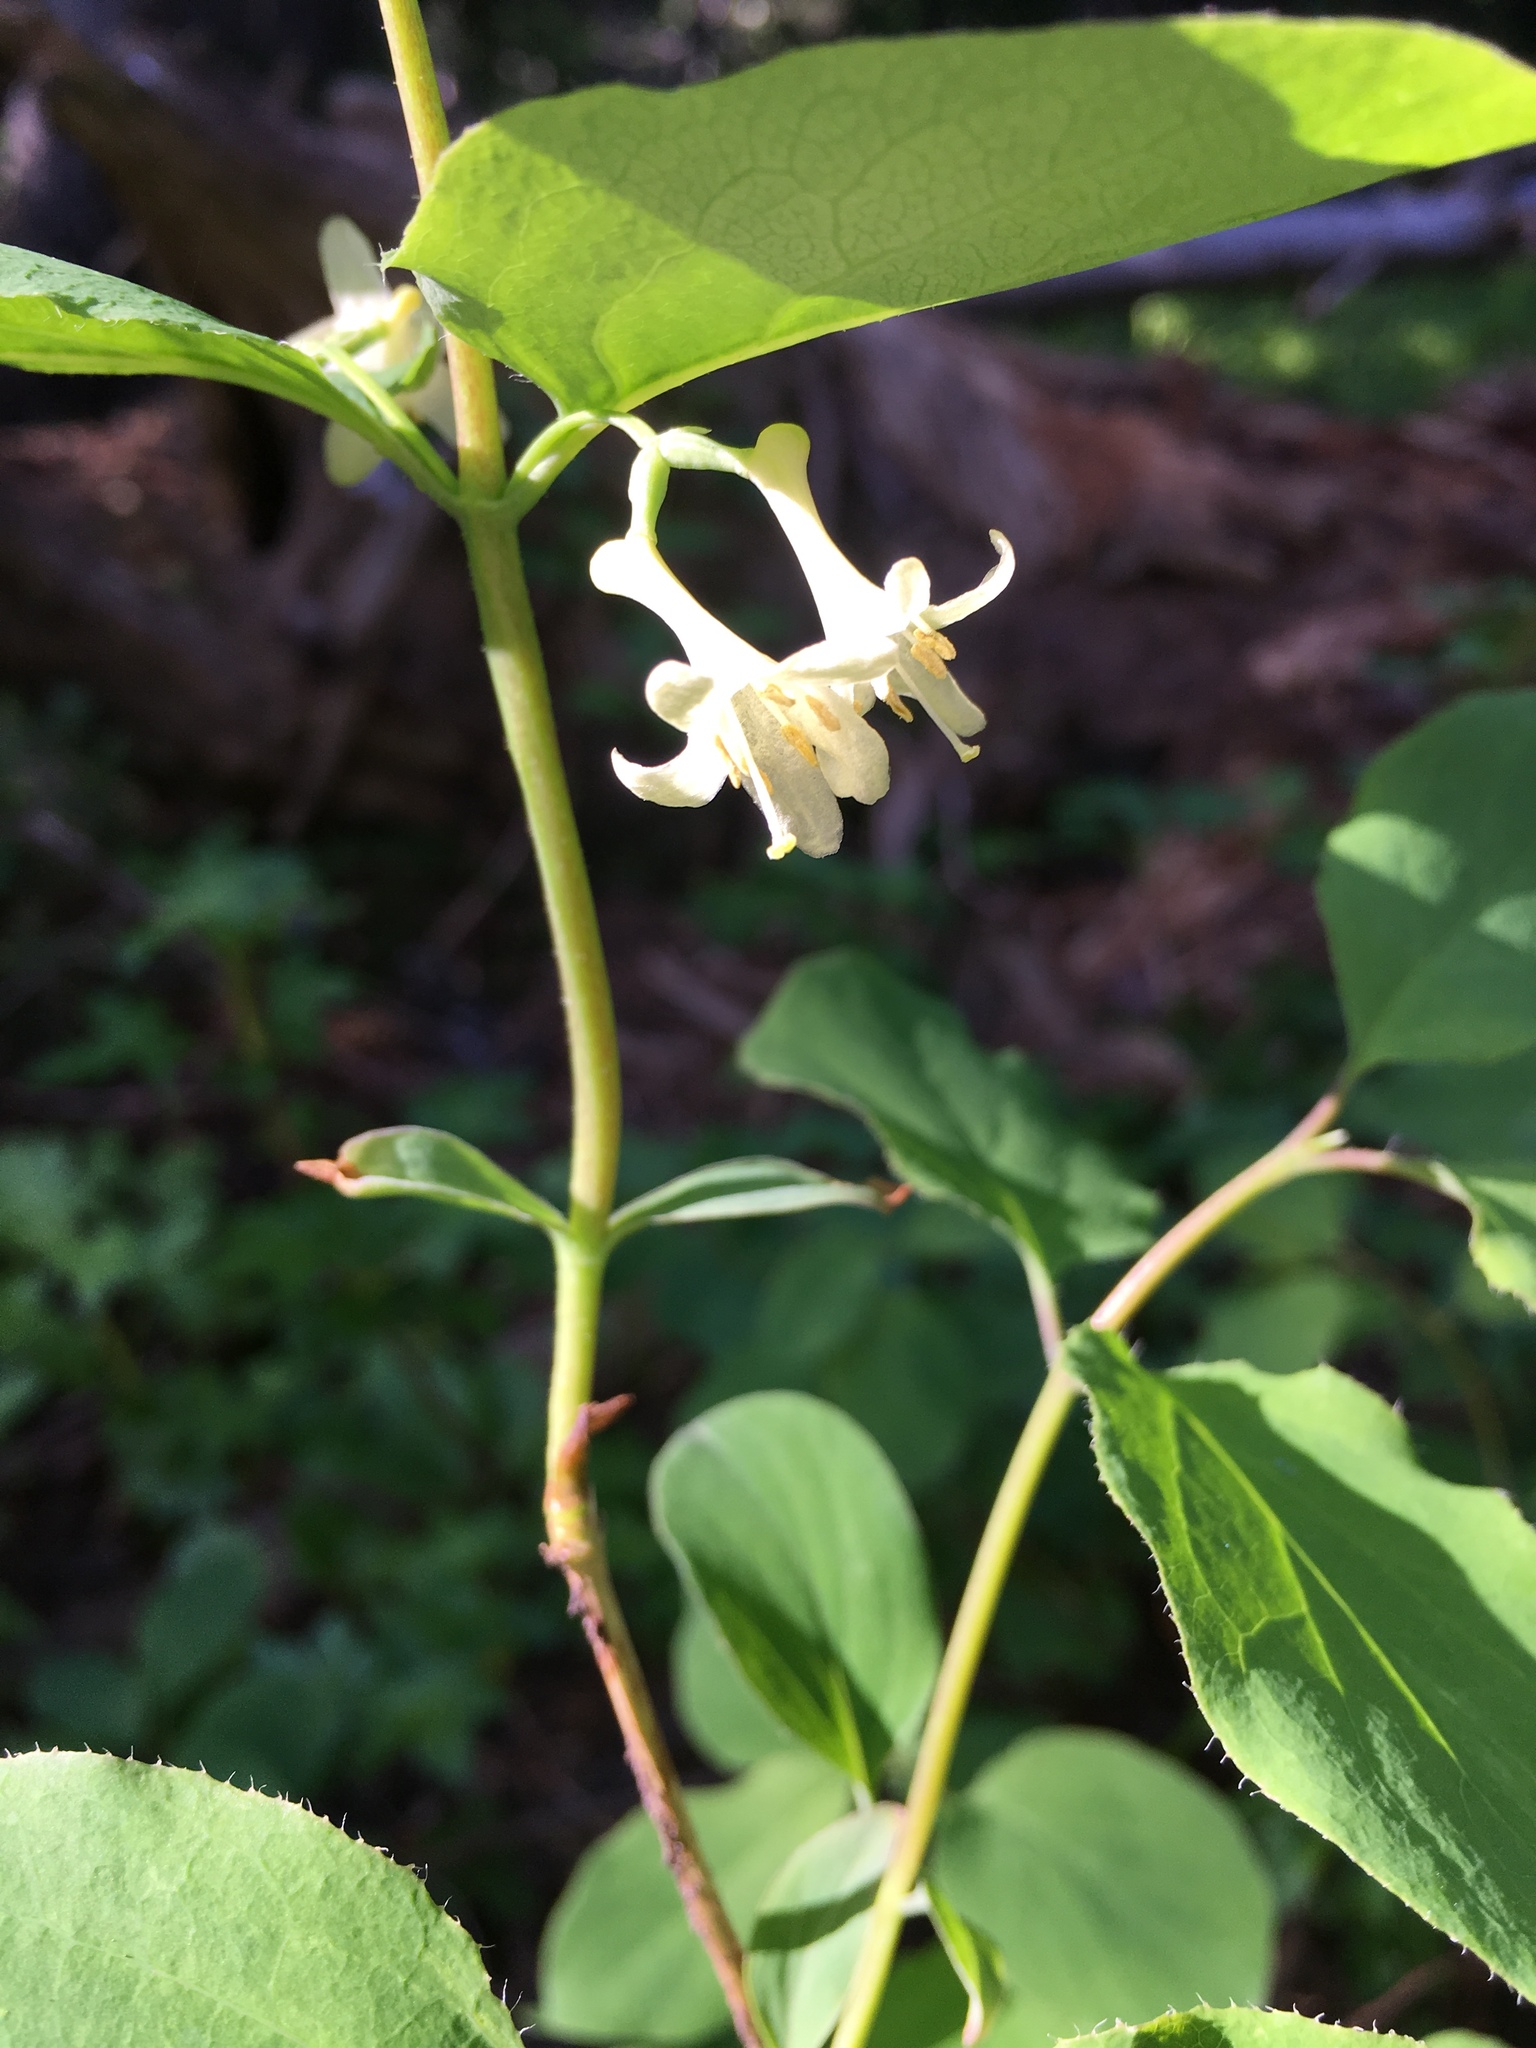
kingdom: Plantae
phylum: Tracheophyta
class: Magnoliopsida
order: Dipsacales
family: Caprifoliaceae
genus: Lonicera
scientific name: Lonicera utahensis
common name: Utah honeysuckle
